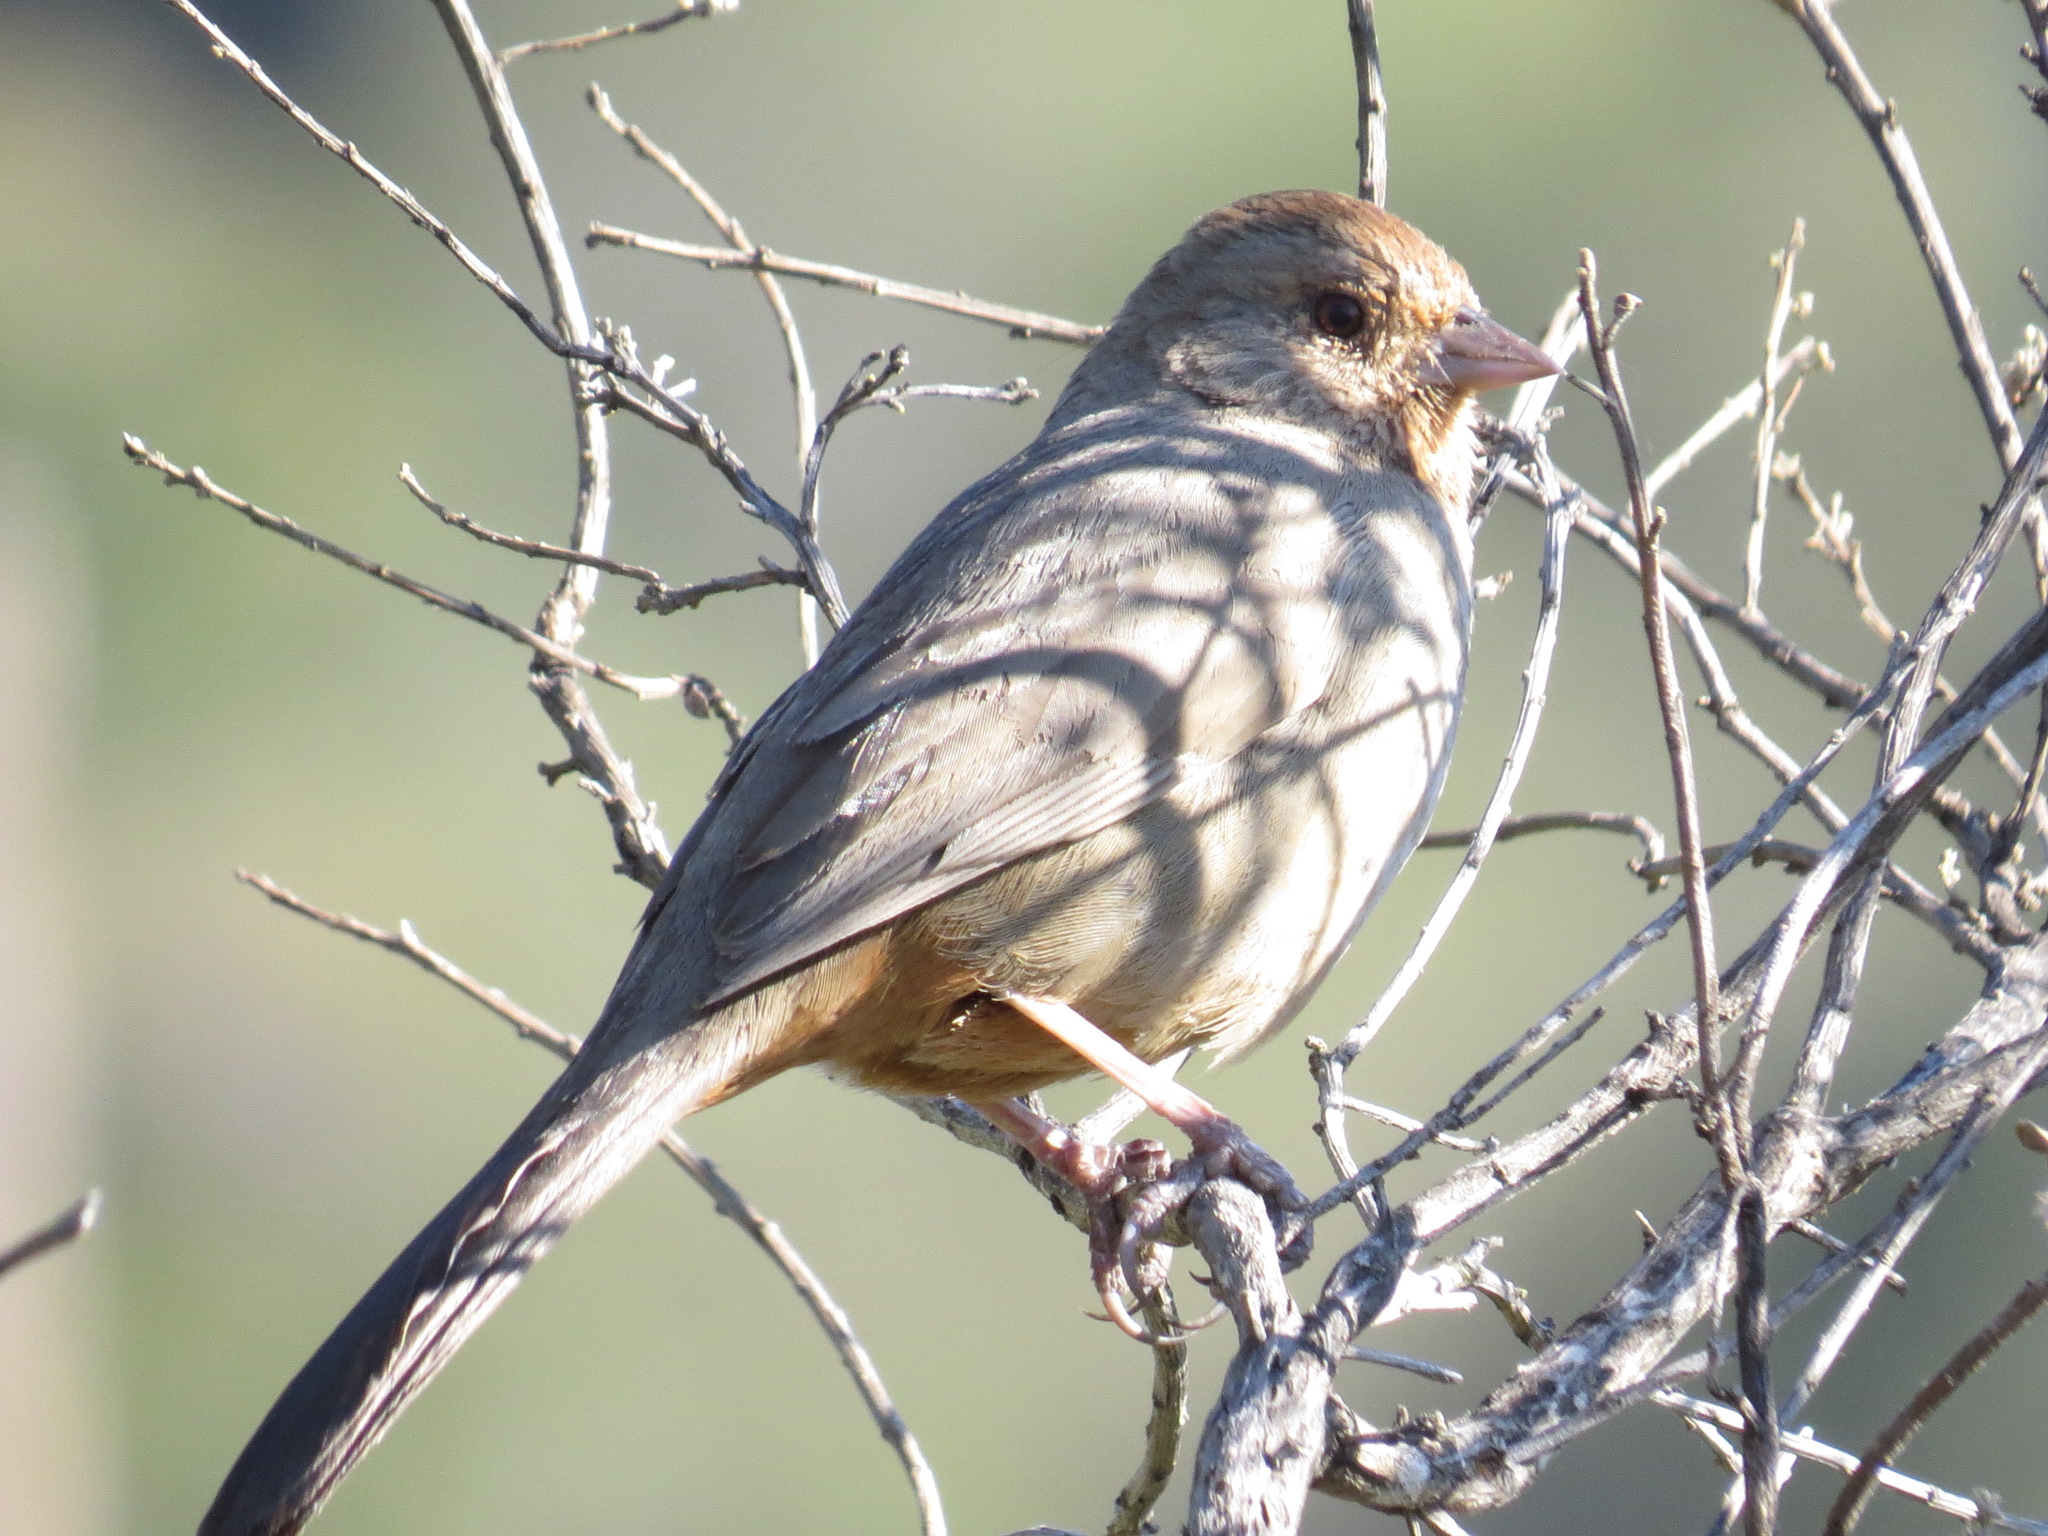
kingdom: Animalia
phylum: Chordata
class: Aves
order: Passeriformes
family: Passerellidae
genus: Melozone
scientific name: Melozone crissalis
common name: California towhee
